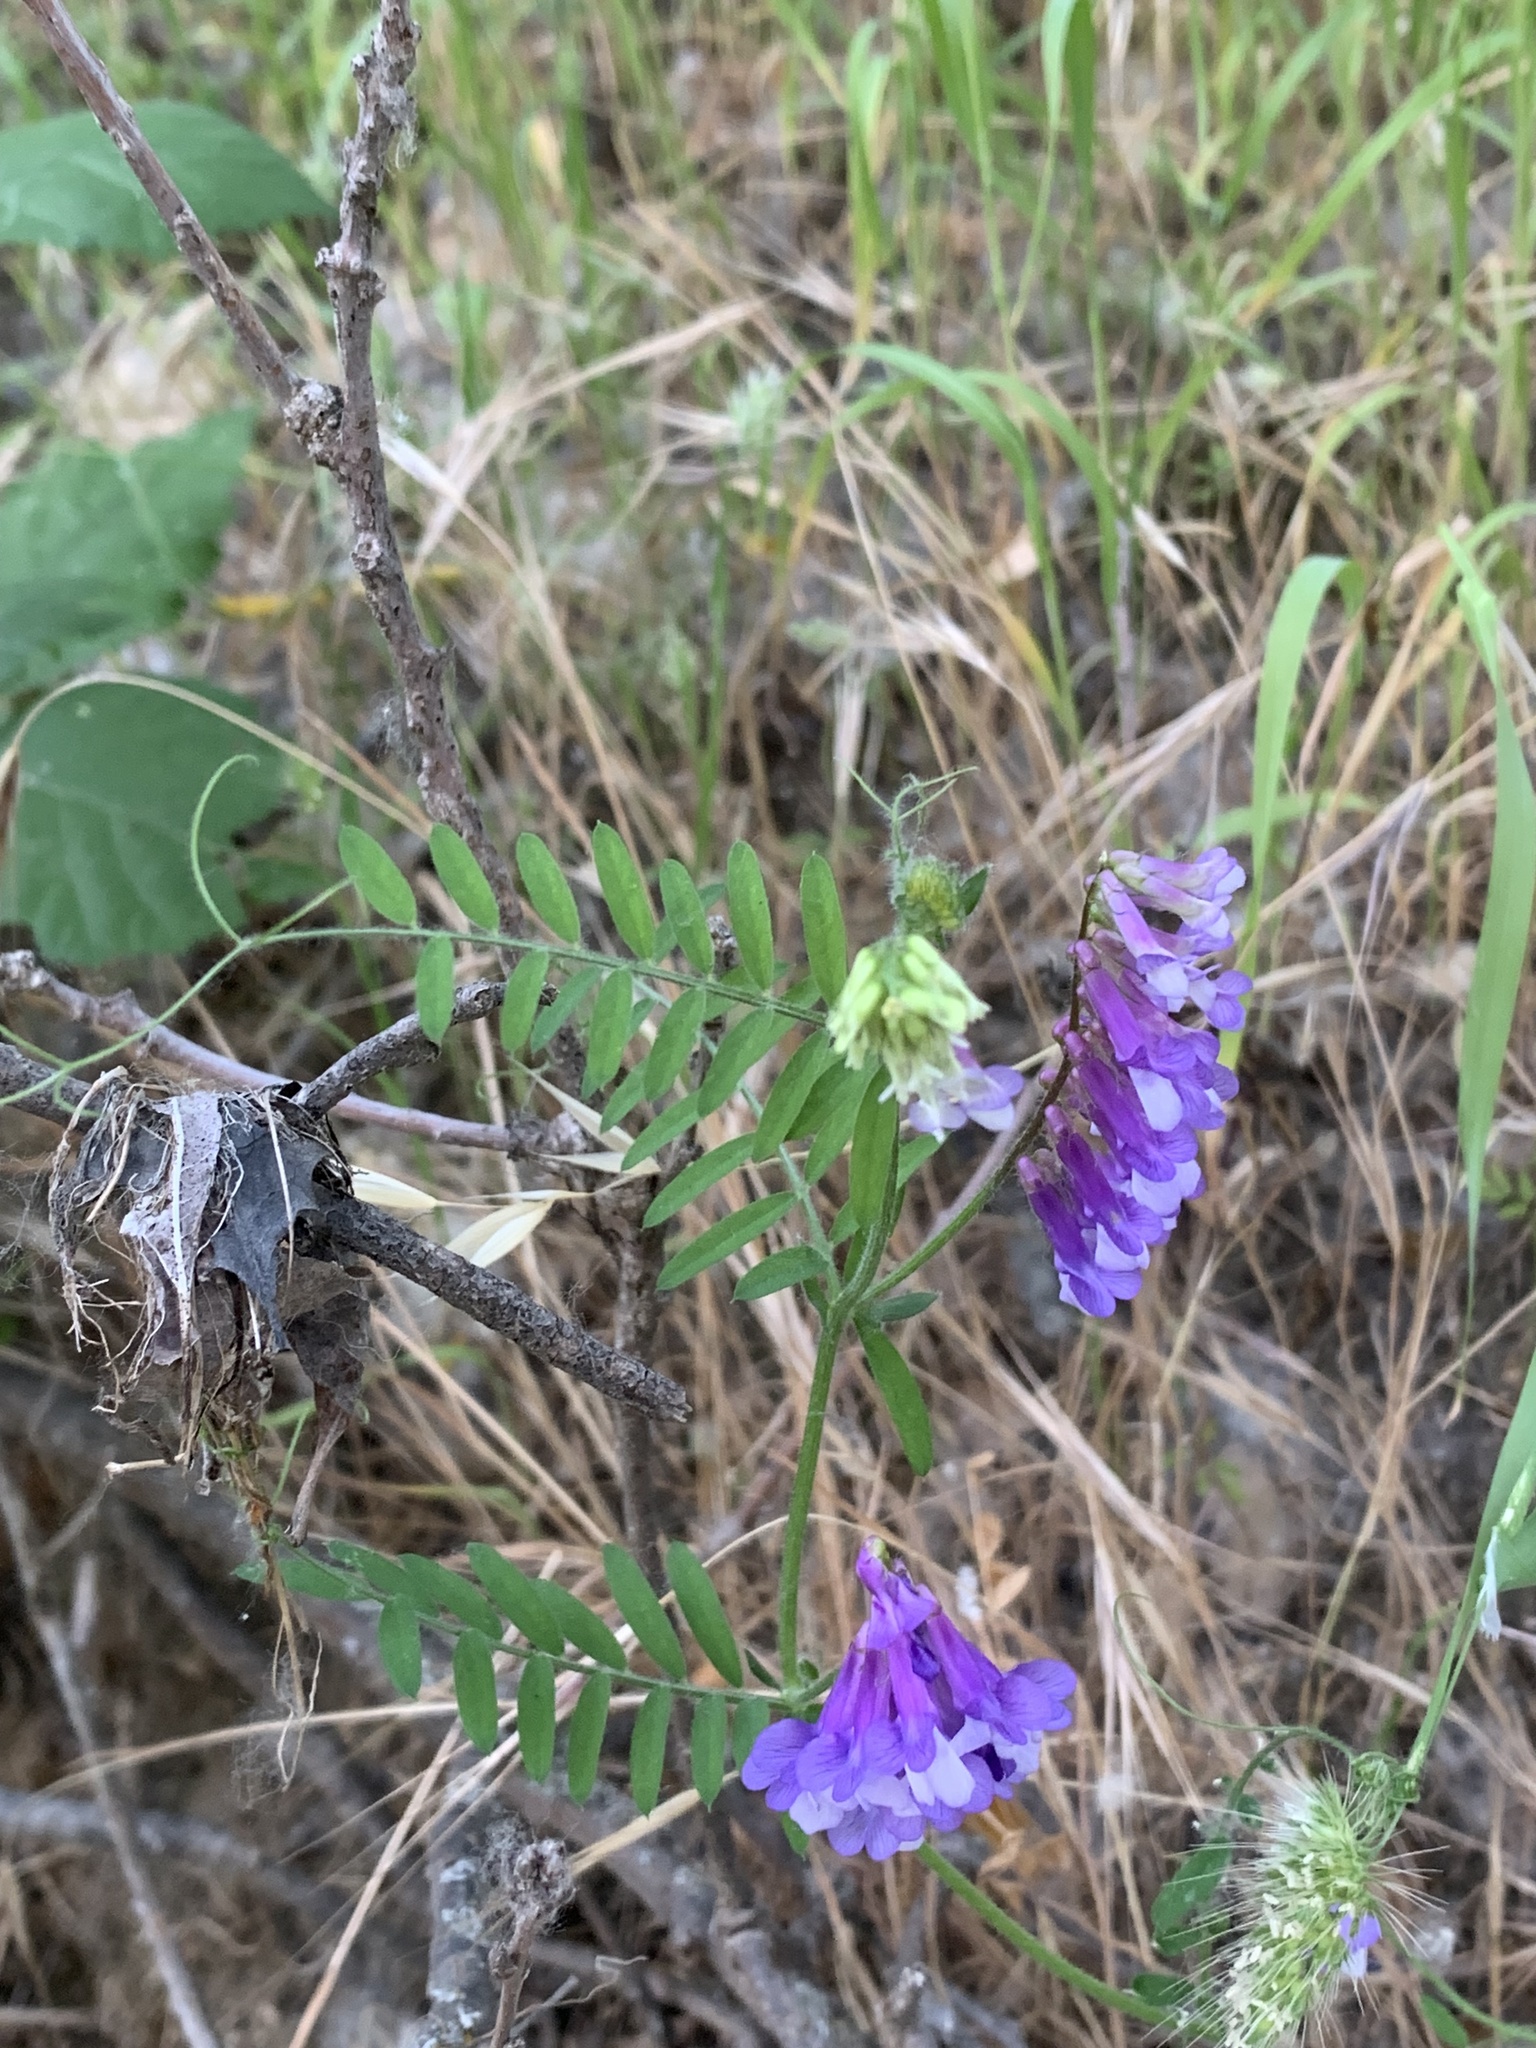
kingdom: Plantae
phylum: Tracheophyta
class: Magnoliopsida
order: Fabales
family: Fabaceae
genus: Vicia
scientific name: Vicia villosa
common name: Fodder vetch
